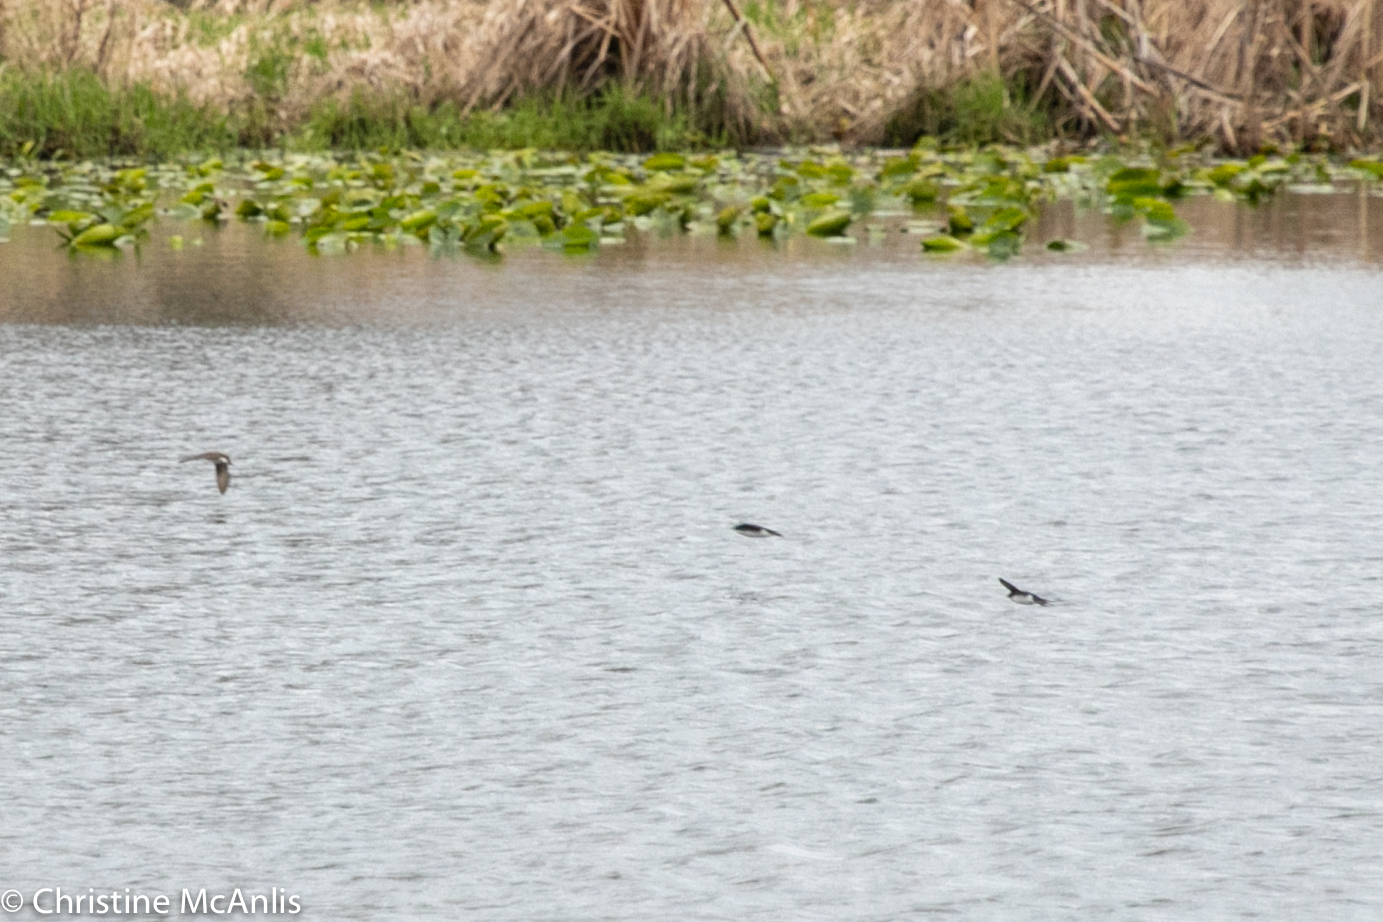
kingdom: Animalia
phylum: Chordata
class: Aves
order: Passeriformes
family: Hirundinidae
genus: Tachycineta
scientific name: Tachycineta bicolor
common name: Tree swallow
